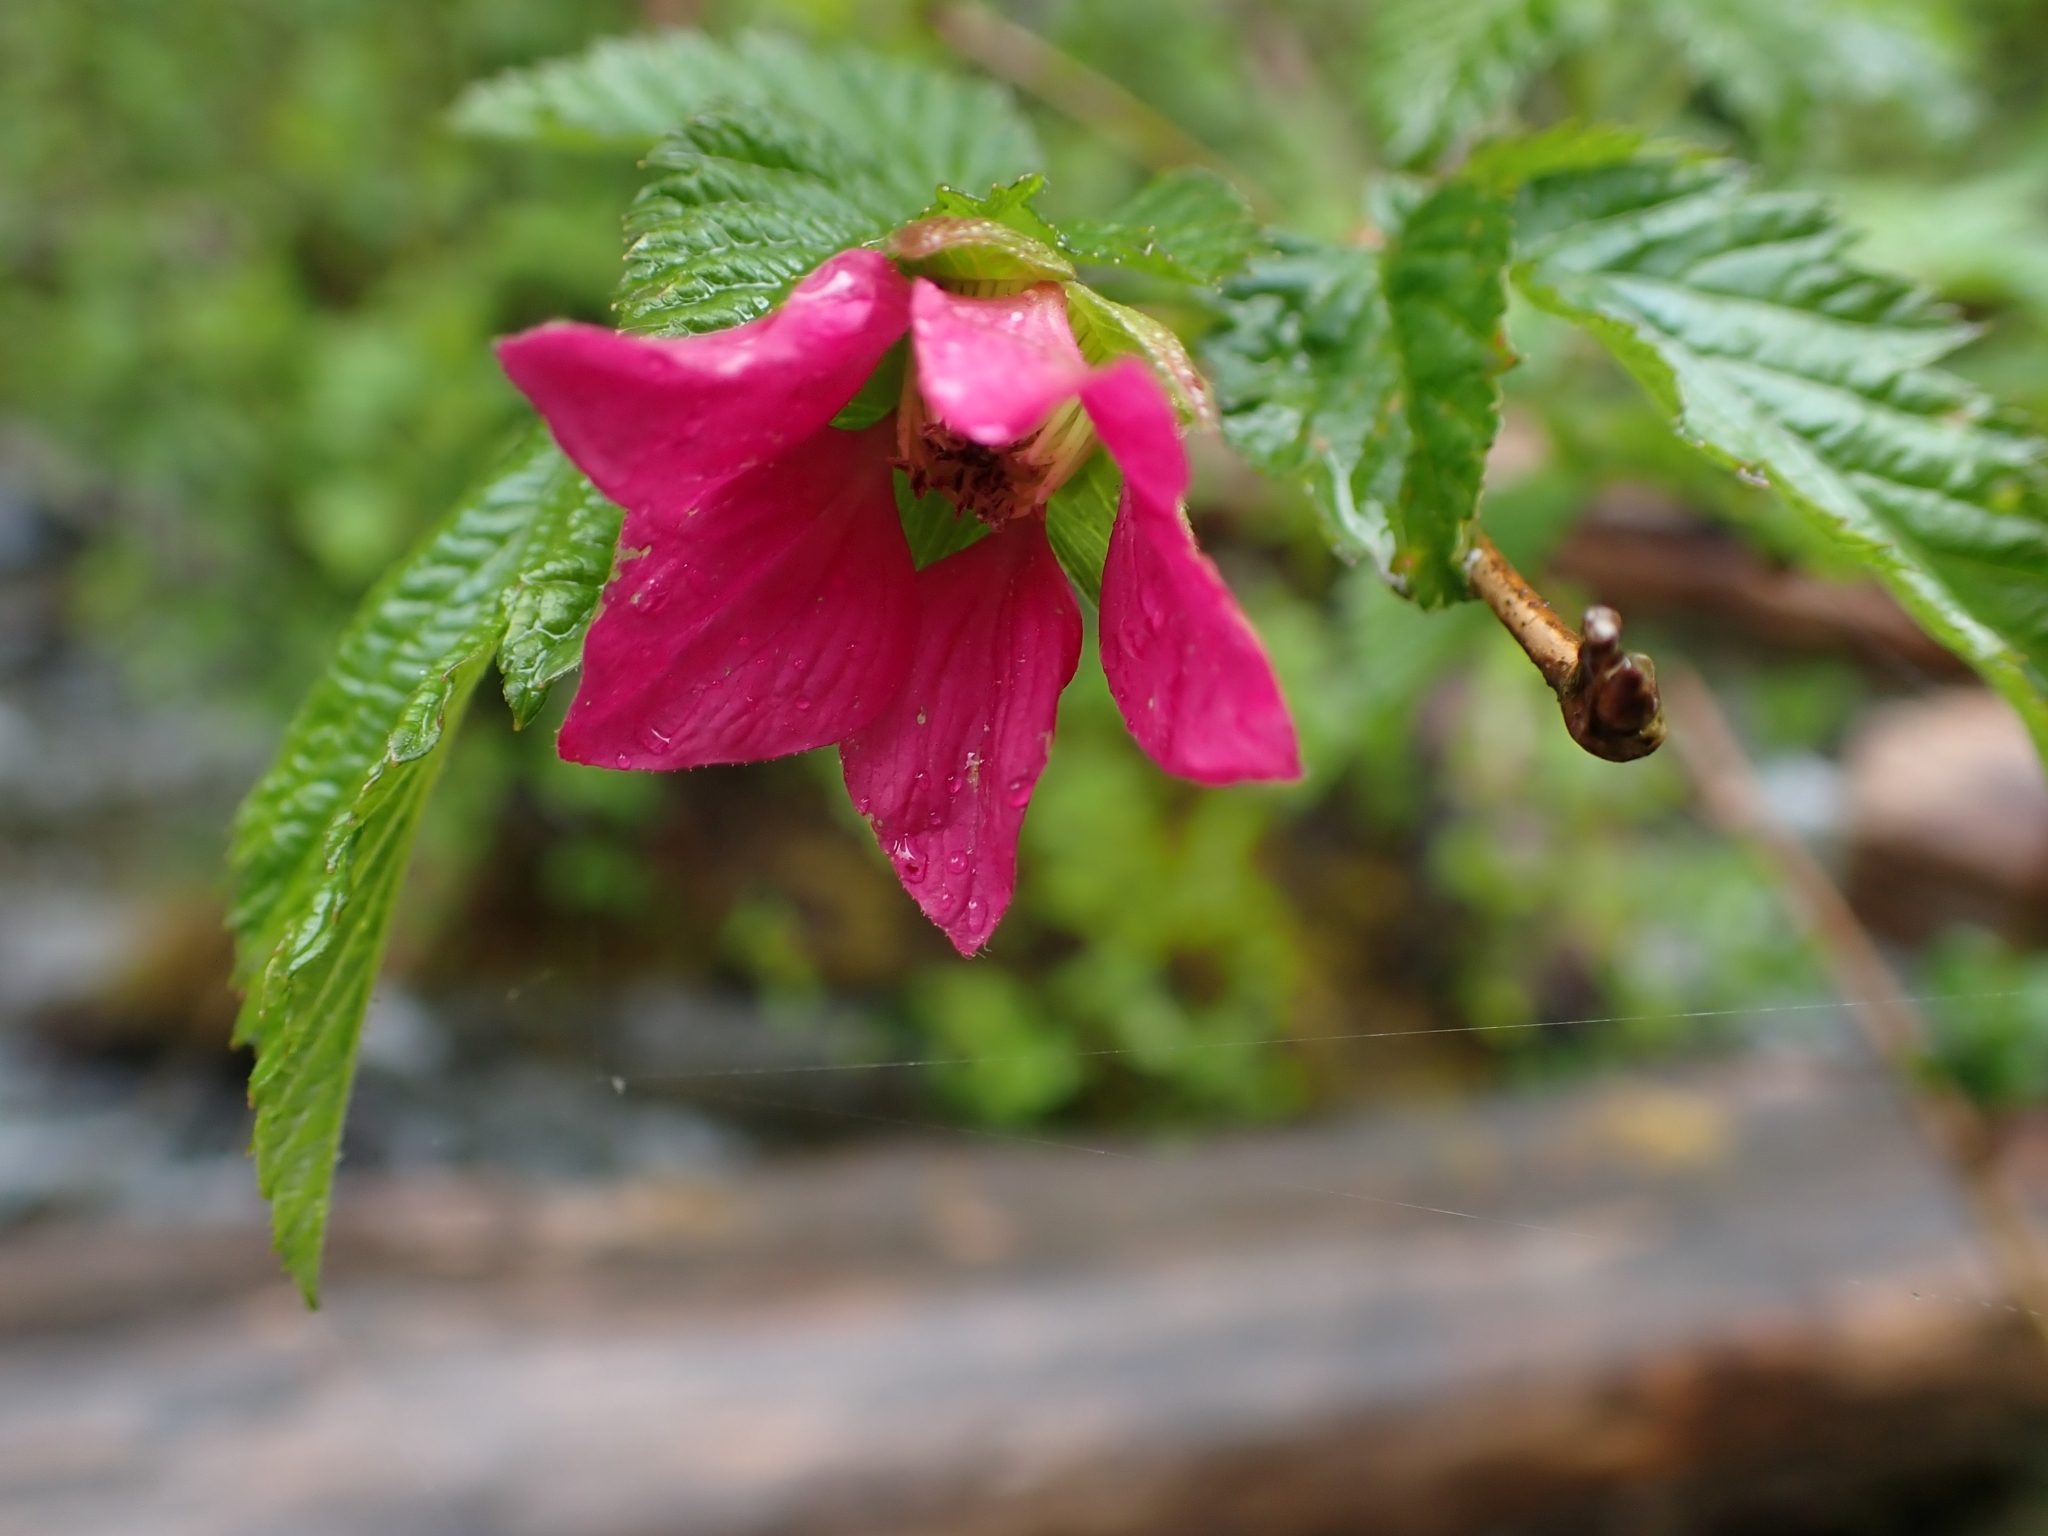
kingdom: Plantae
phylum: Tracheophyta
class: Magnoliopsida
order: Rosales
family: Rosaceae
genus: Rubus
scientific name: Rubus spectabilis
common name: Salmonberry
